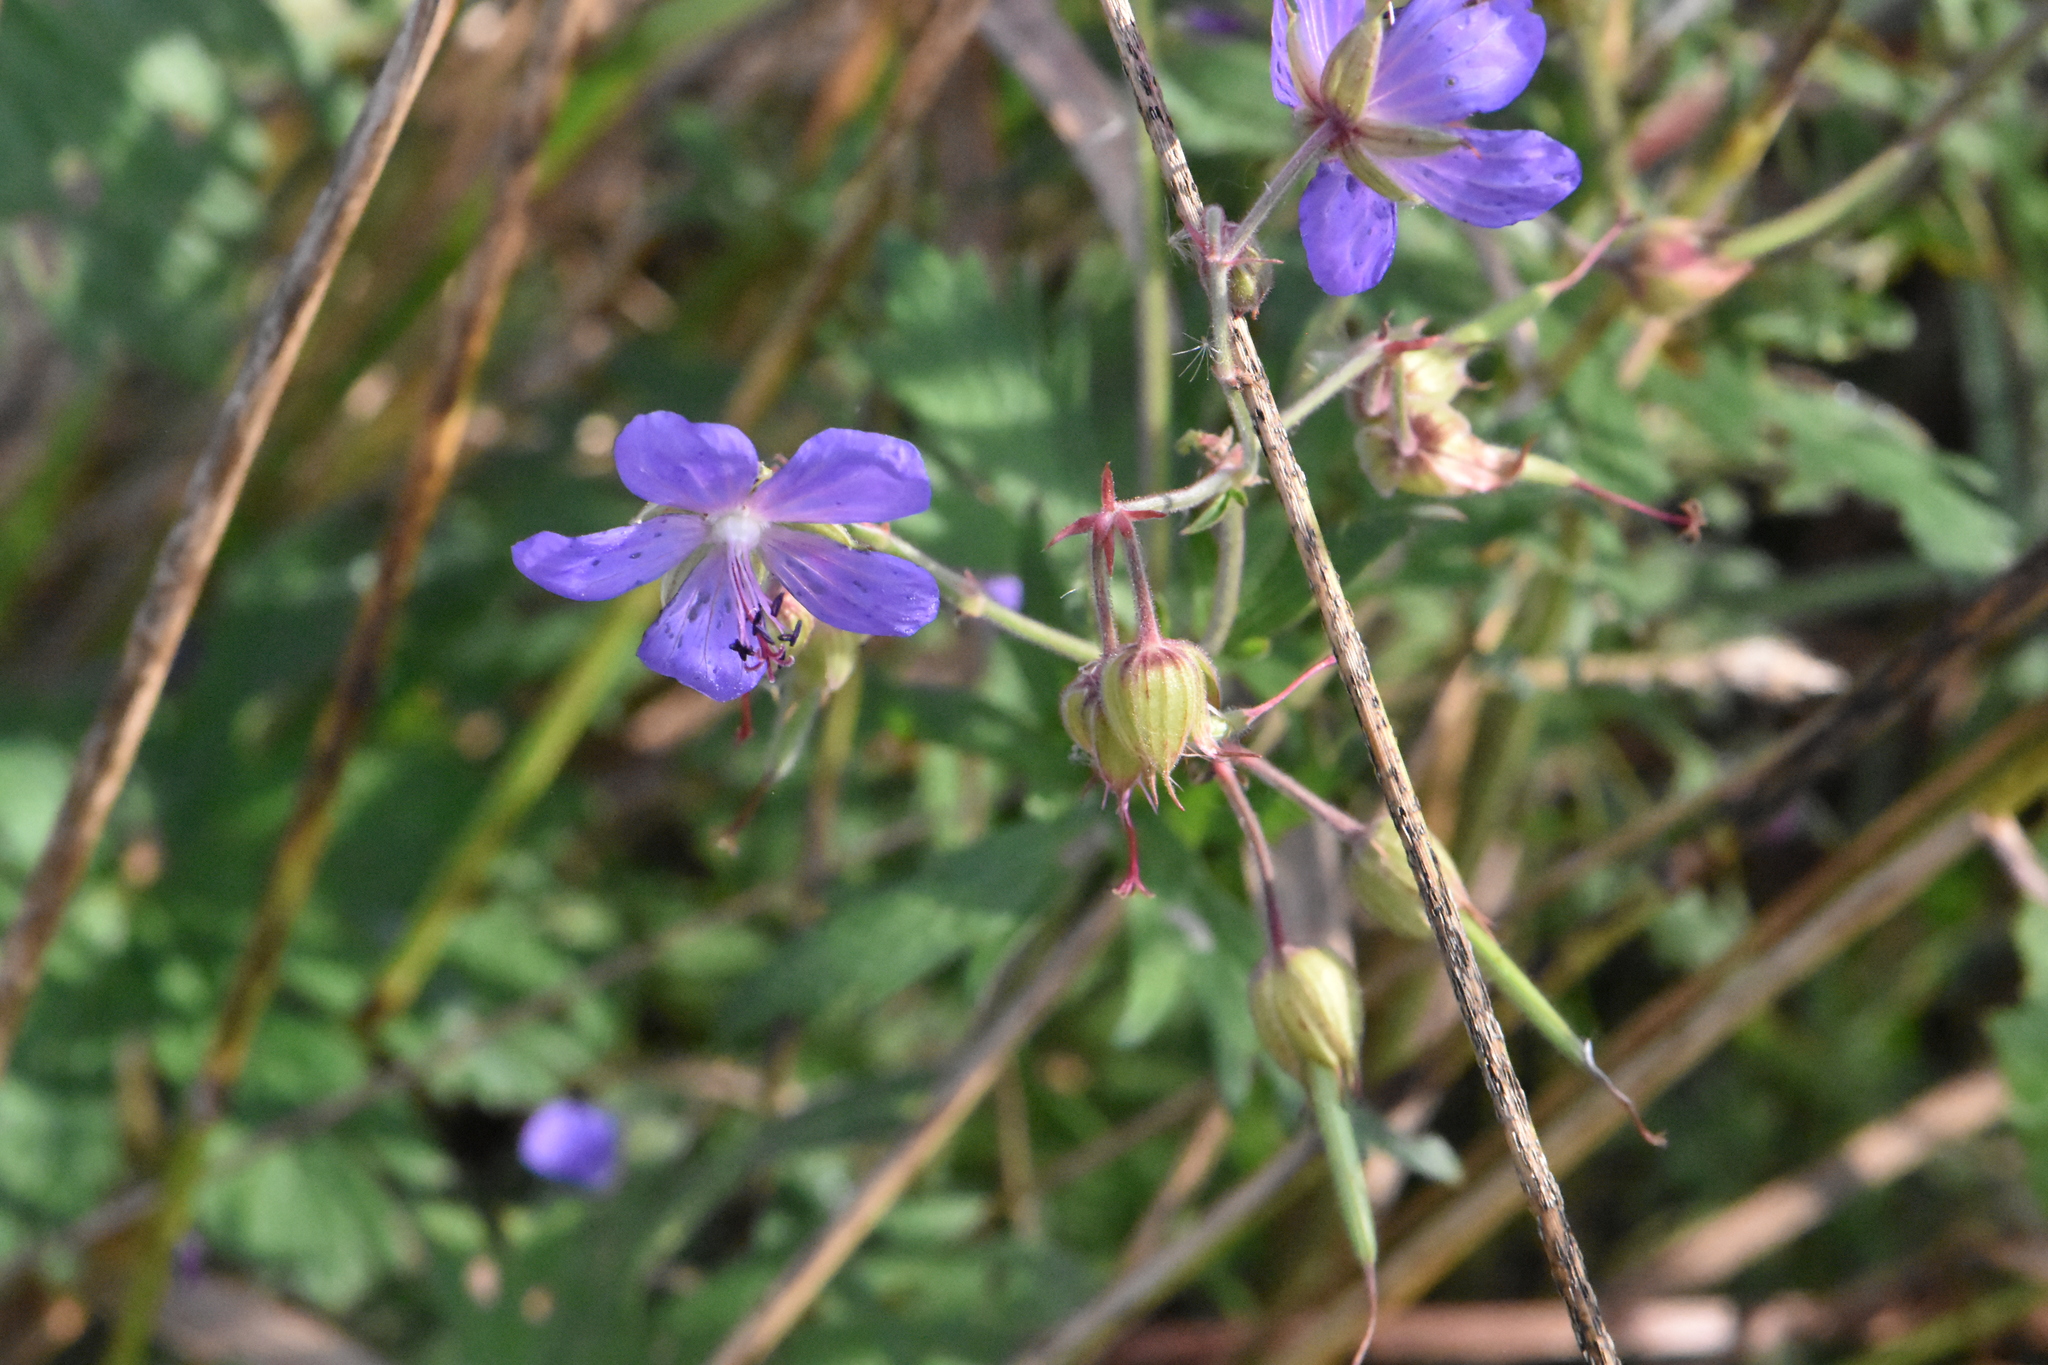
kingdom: Plantae
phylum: Tracheophyta
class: Magnoliopsida
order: Geraniales
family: Geraniaceae
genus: Geranium
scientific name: Geranium pratense
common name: Meadow crane's-bill
